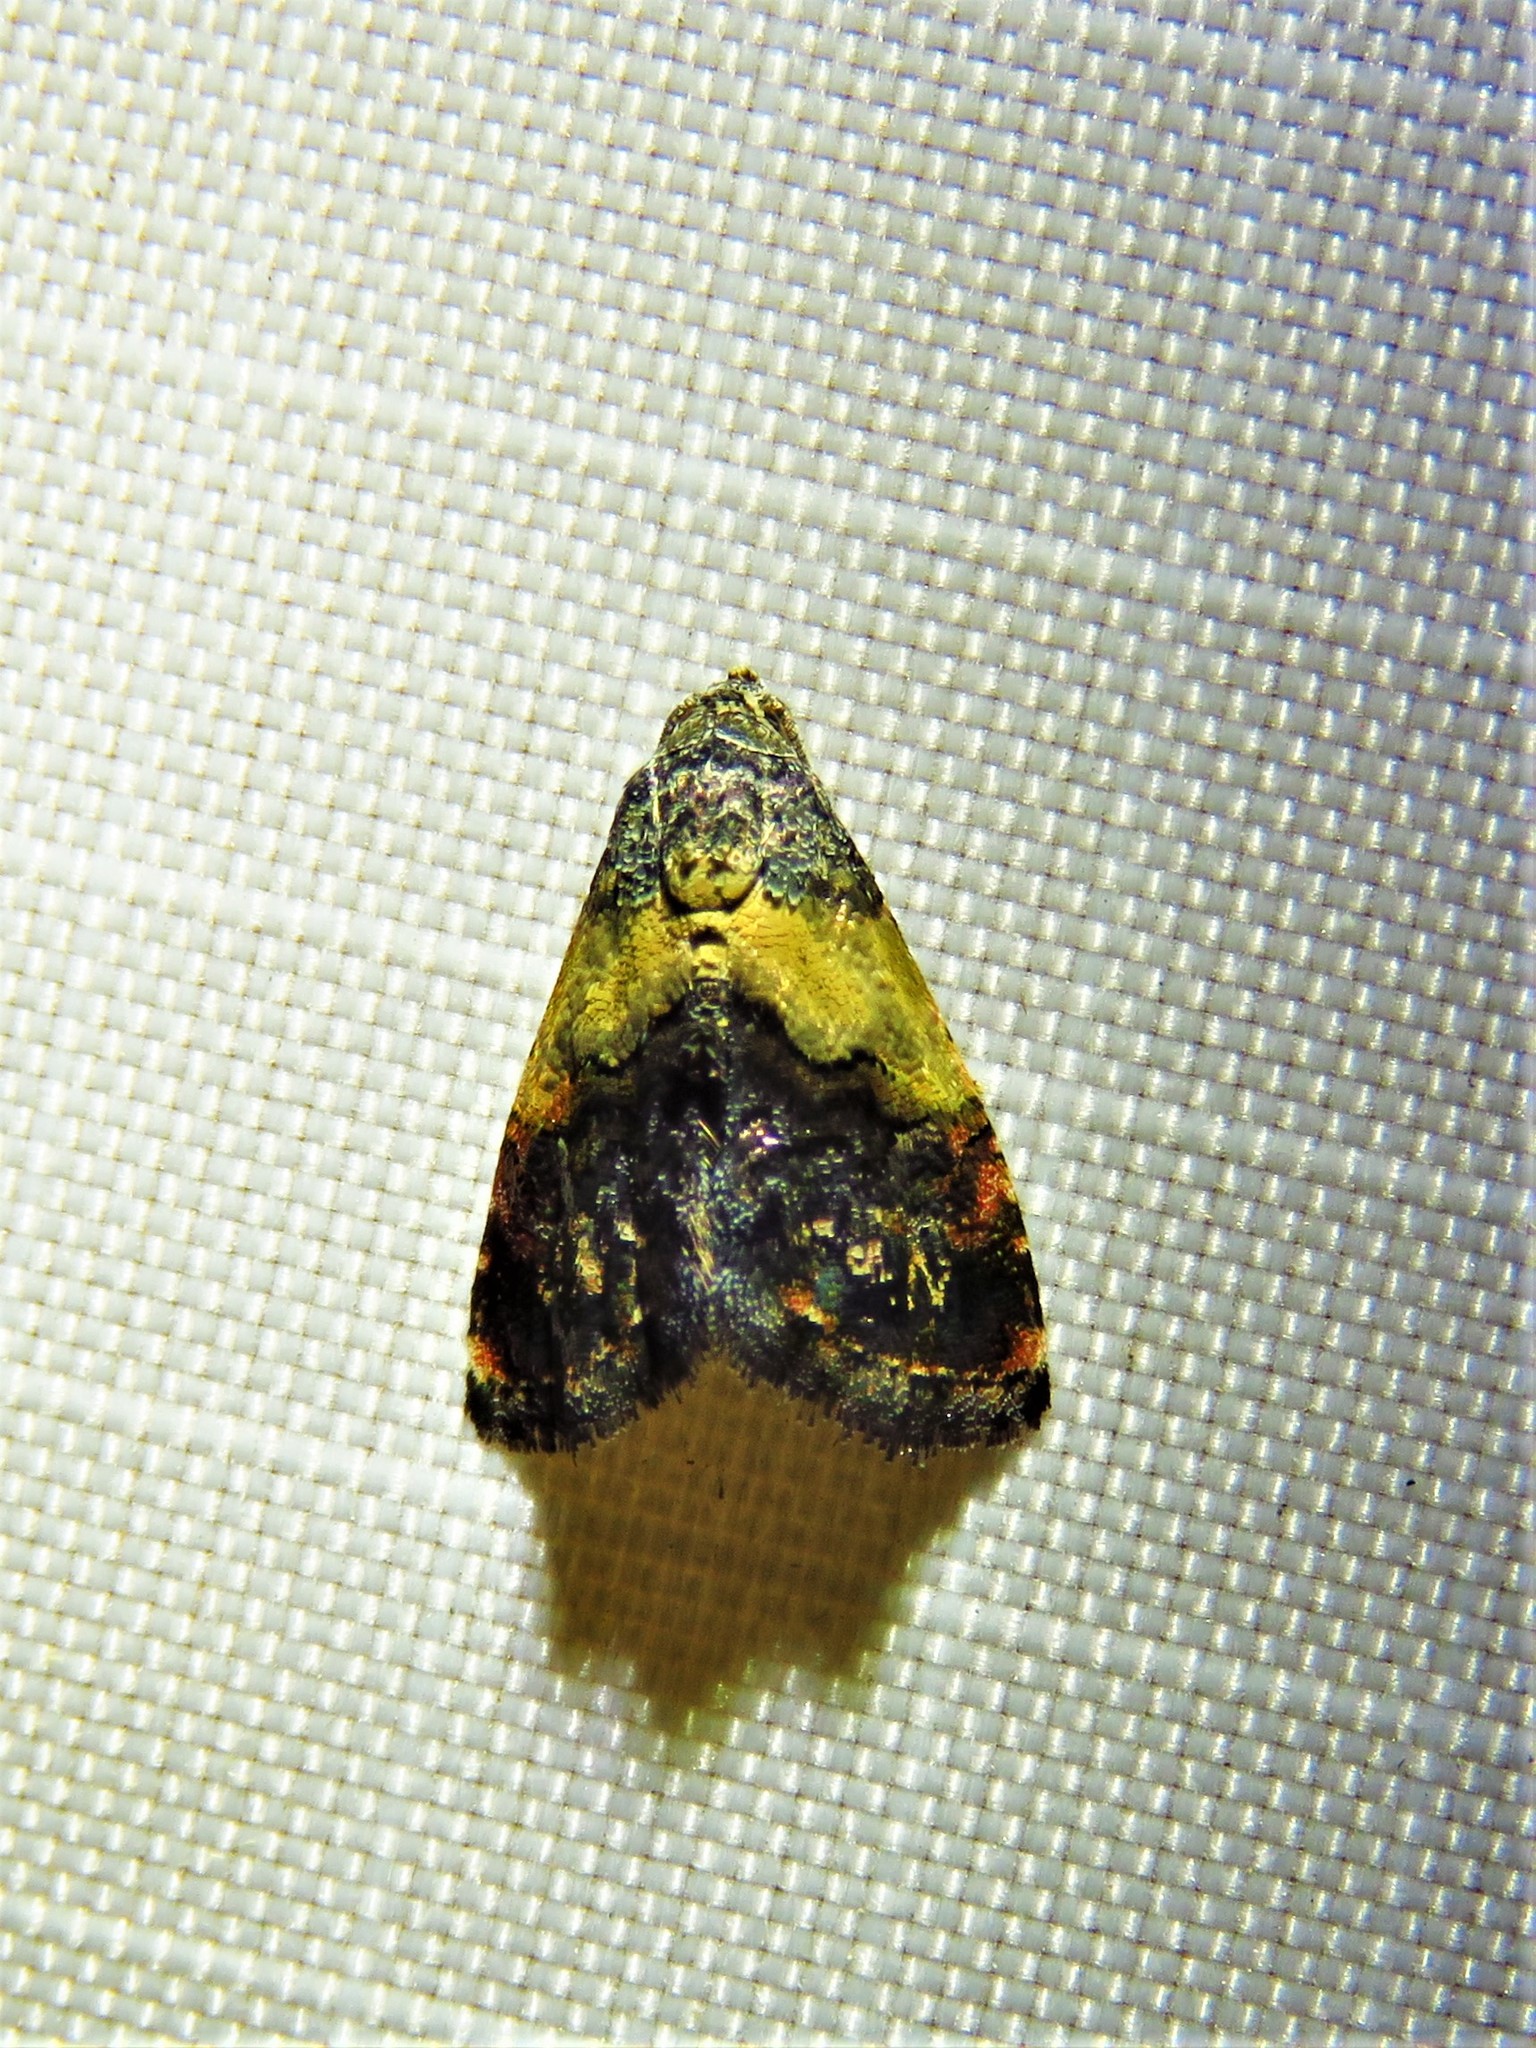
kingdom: Animalia
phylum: Arthropoda
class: Insecta
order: Lepidoptera
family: Noctuidae
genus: Tripudia
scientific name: Tripudia flavofasciata
